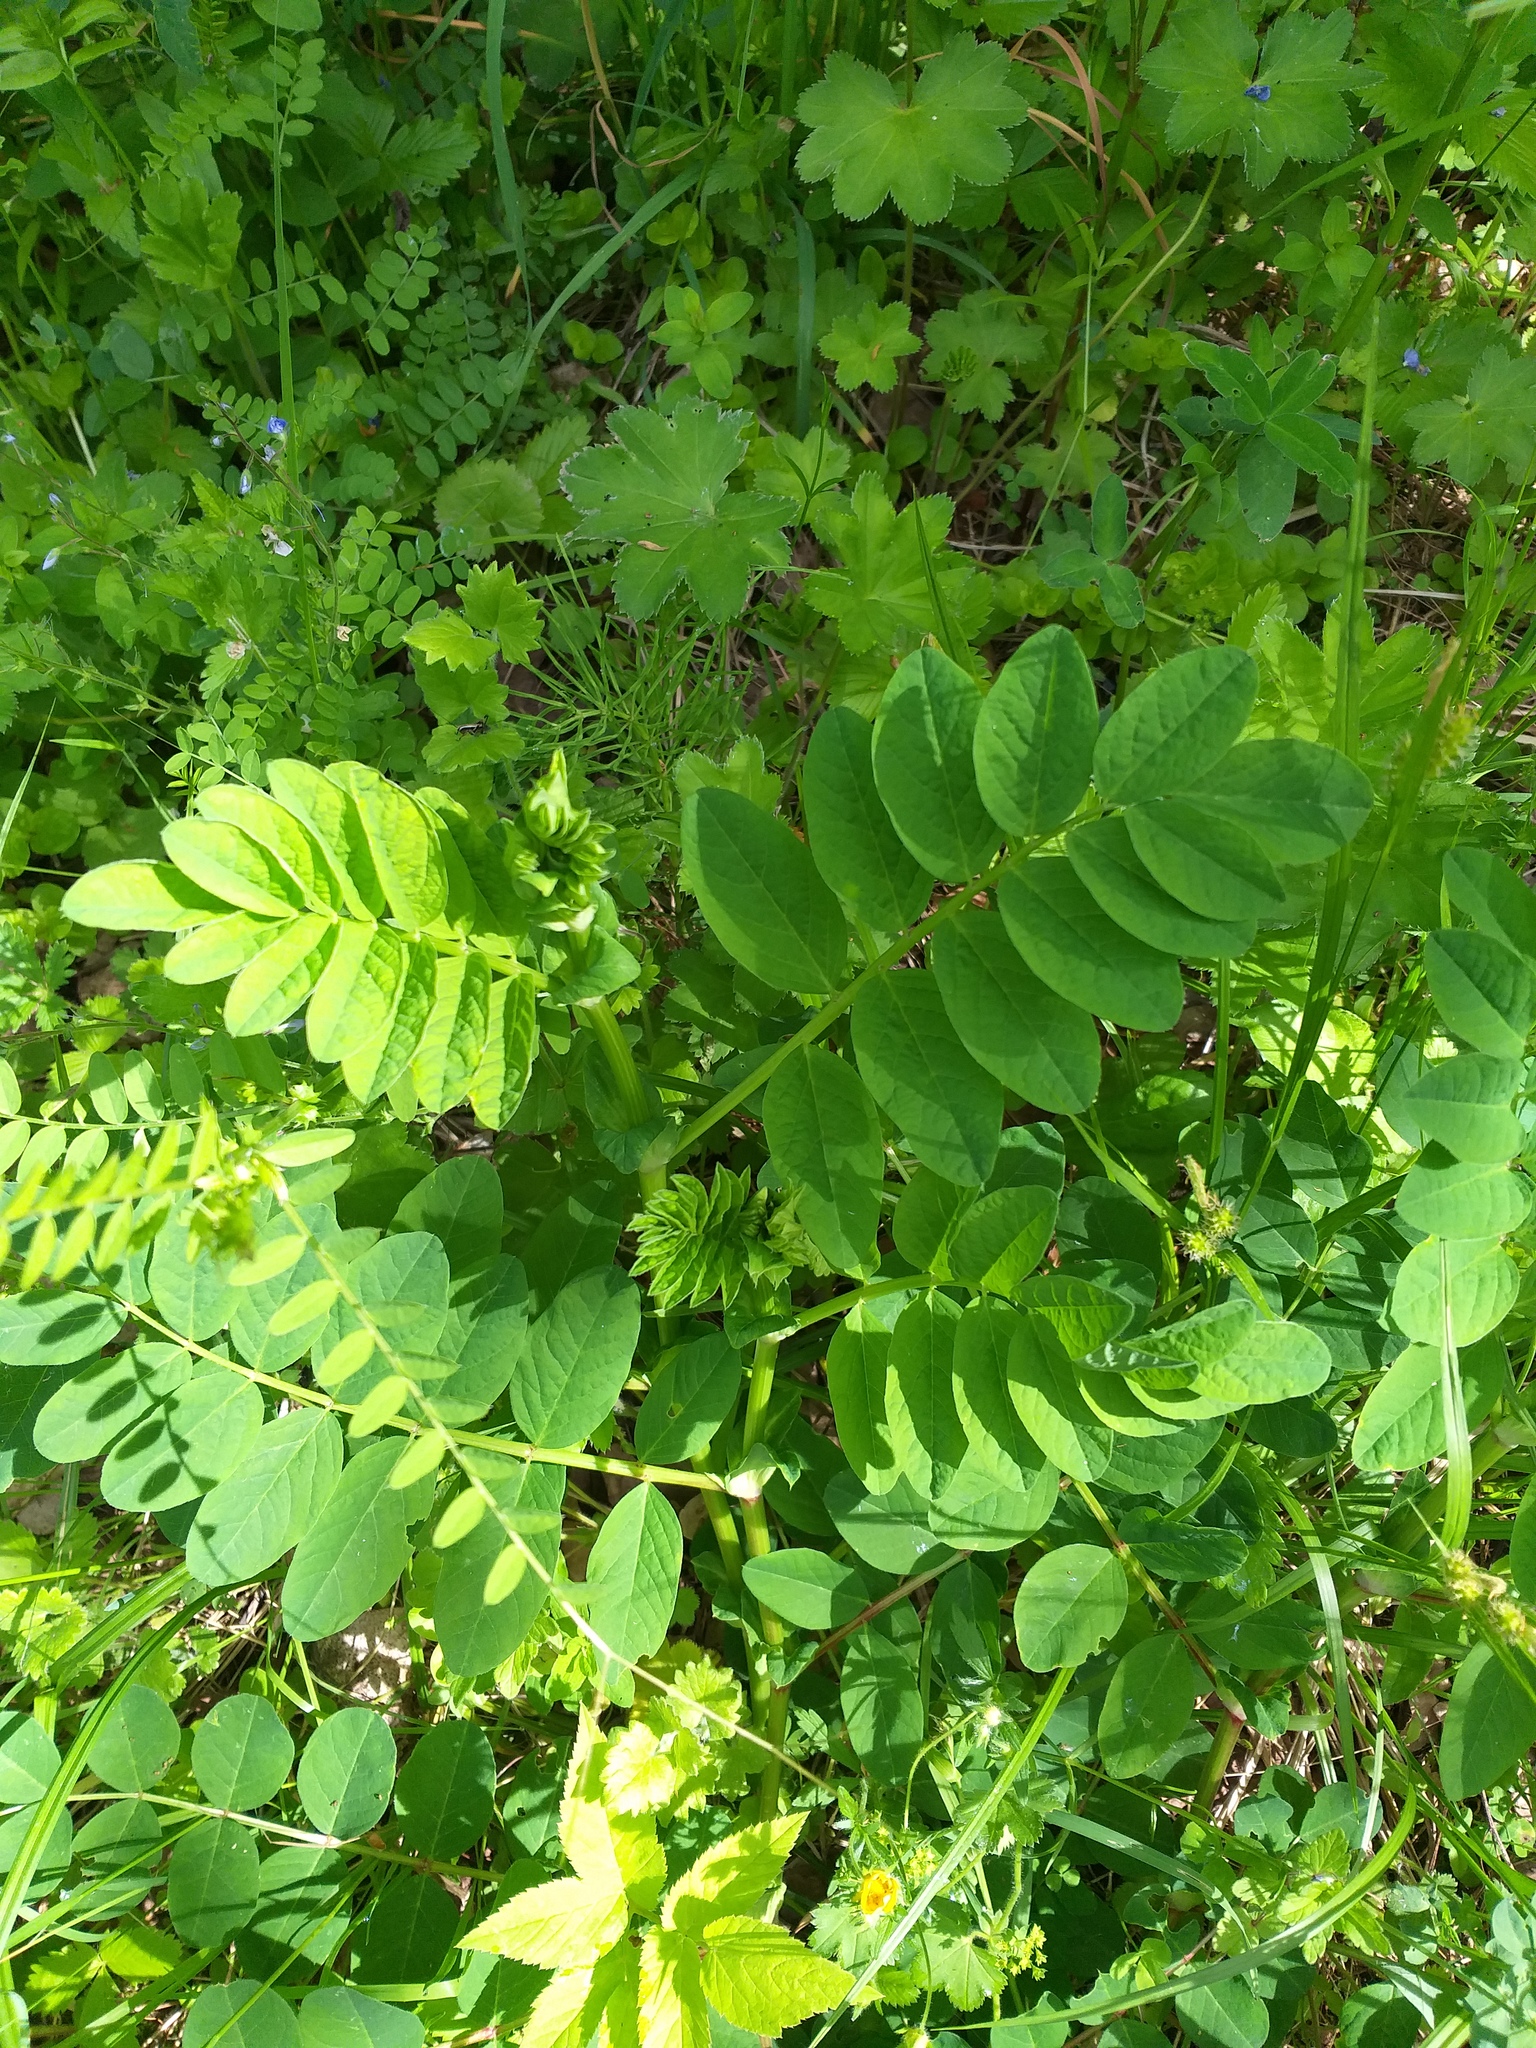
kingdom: Plantae
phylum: Tracheophyta
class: Magnoliopsida
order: Fabales
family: Fabaceae
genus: Astragalus
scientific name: Astragalus glycyphyllos
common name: Wild liquorice
